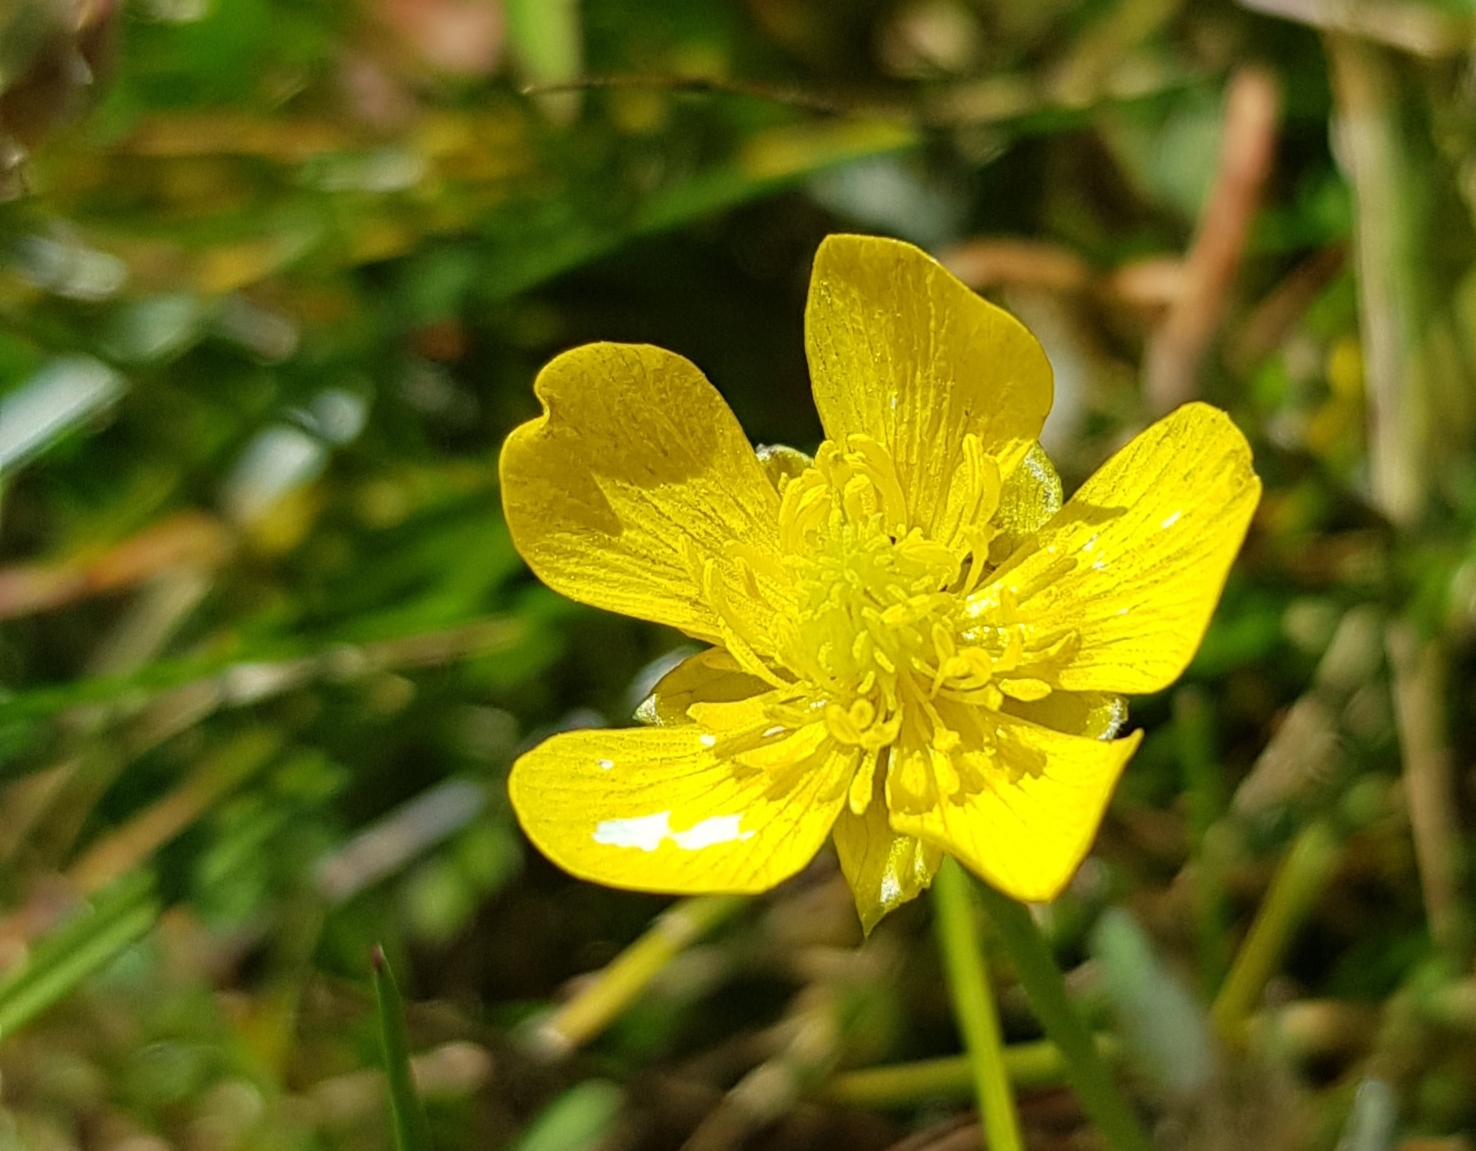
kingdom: Plantae
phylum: Tracheophyta
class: Magnoliopsida
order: Ranunculales
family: Ranunculaceae
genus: Ranunculus
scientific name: Ranunculus repens
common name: Creeping buttercup
